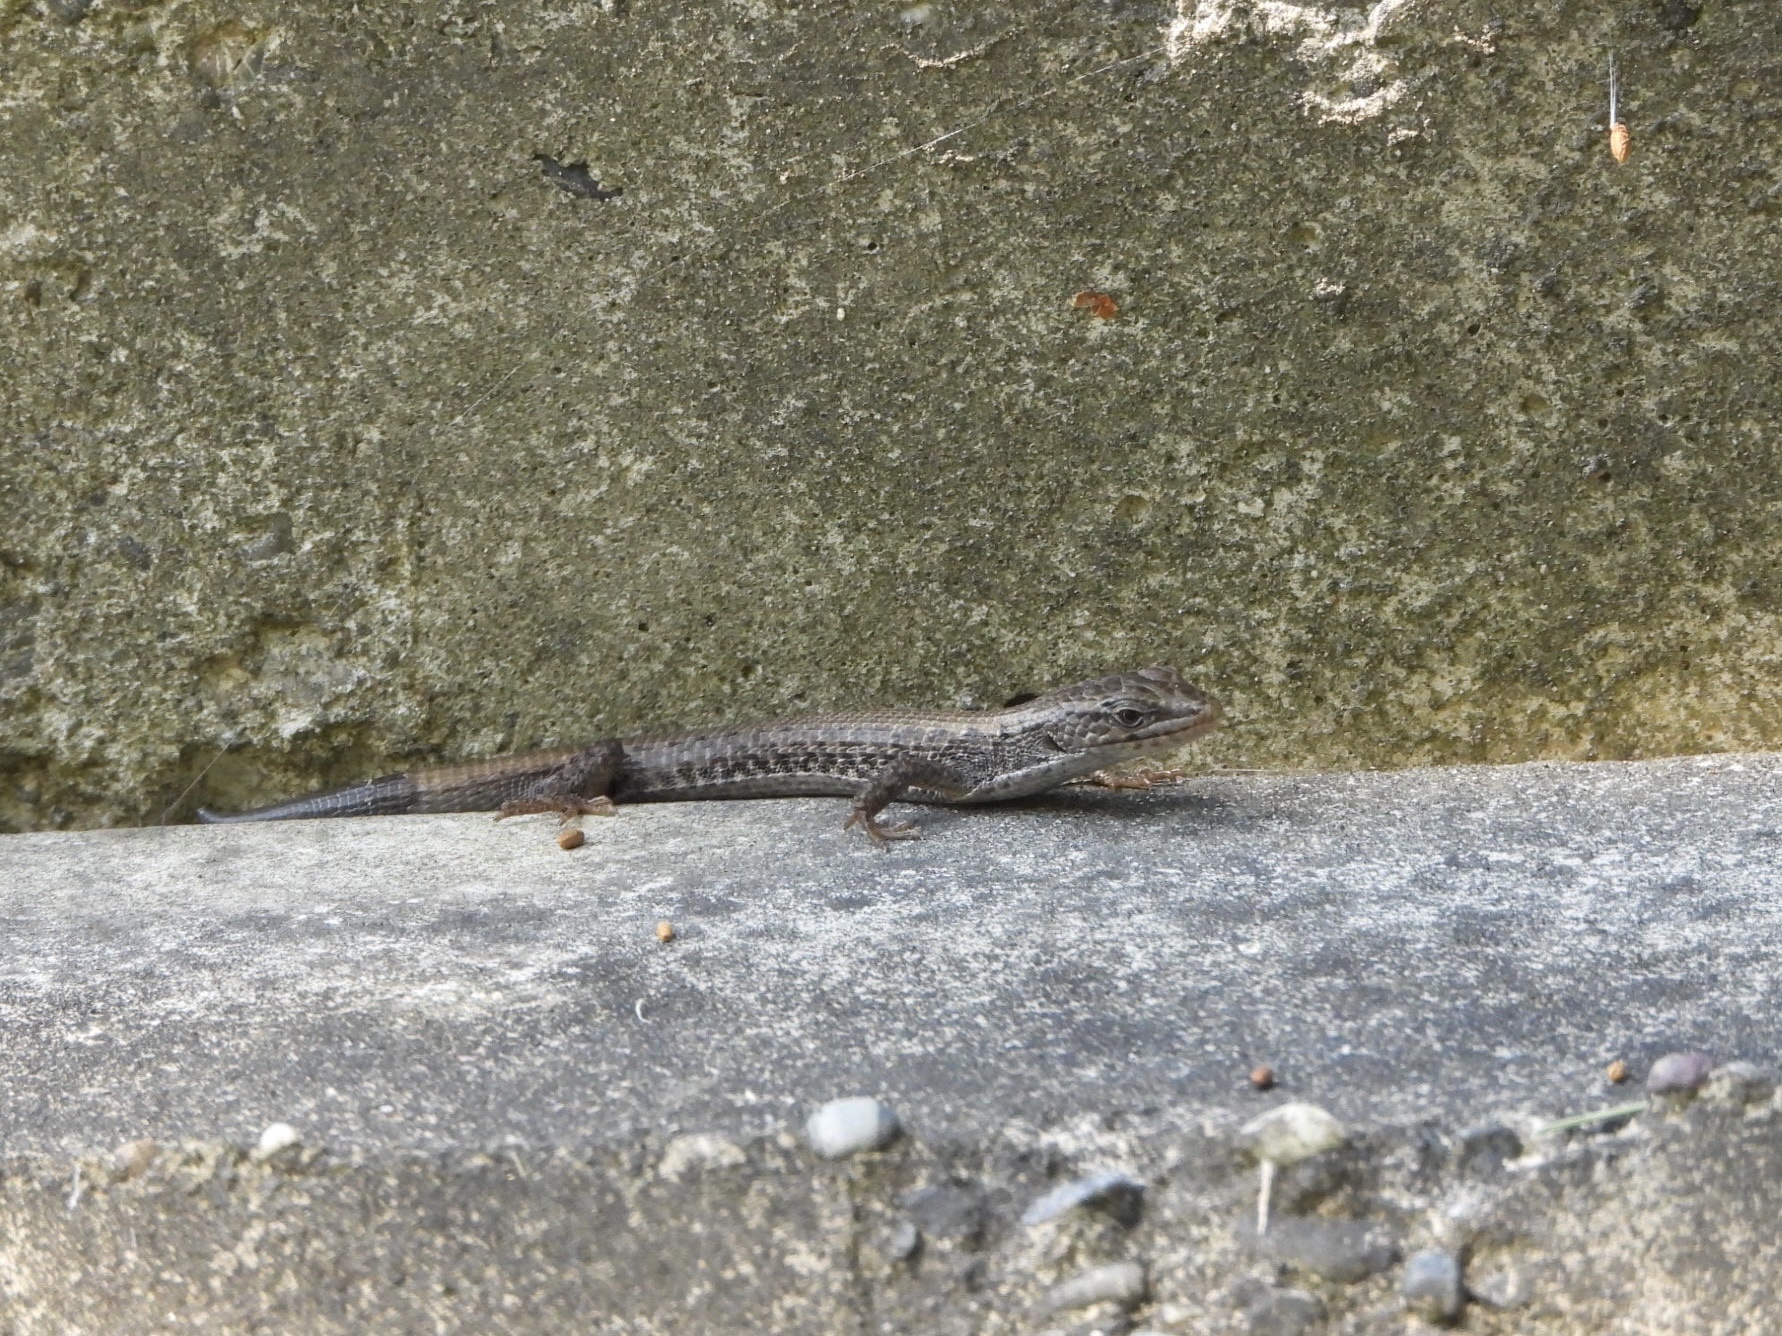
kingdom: Animalia
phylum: Chordata
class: Squamata
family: Anguidae
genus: Elgaria
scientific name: Elgaria coerulea
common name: Northern alligator lizard
